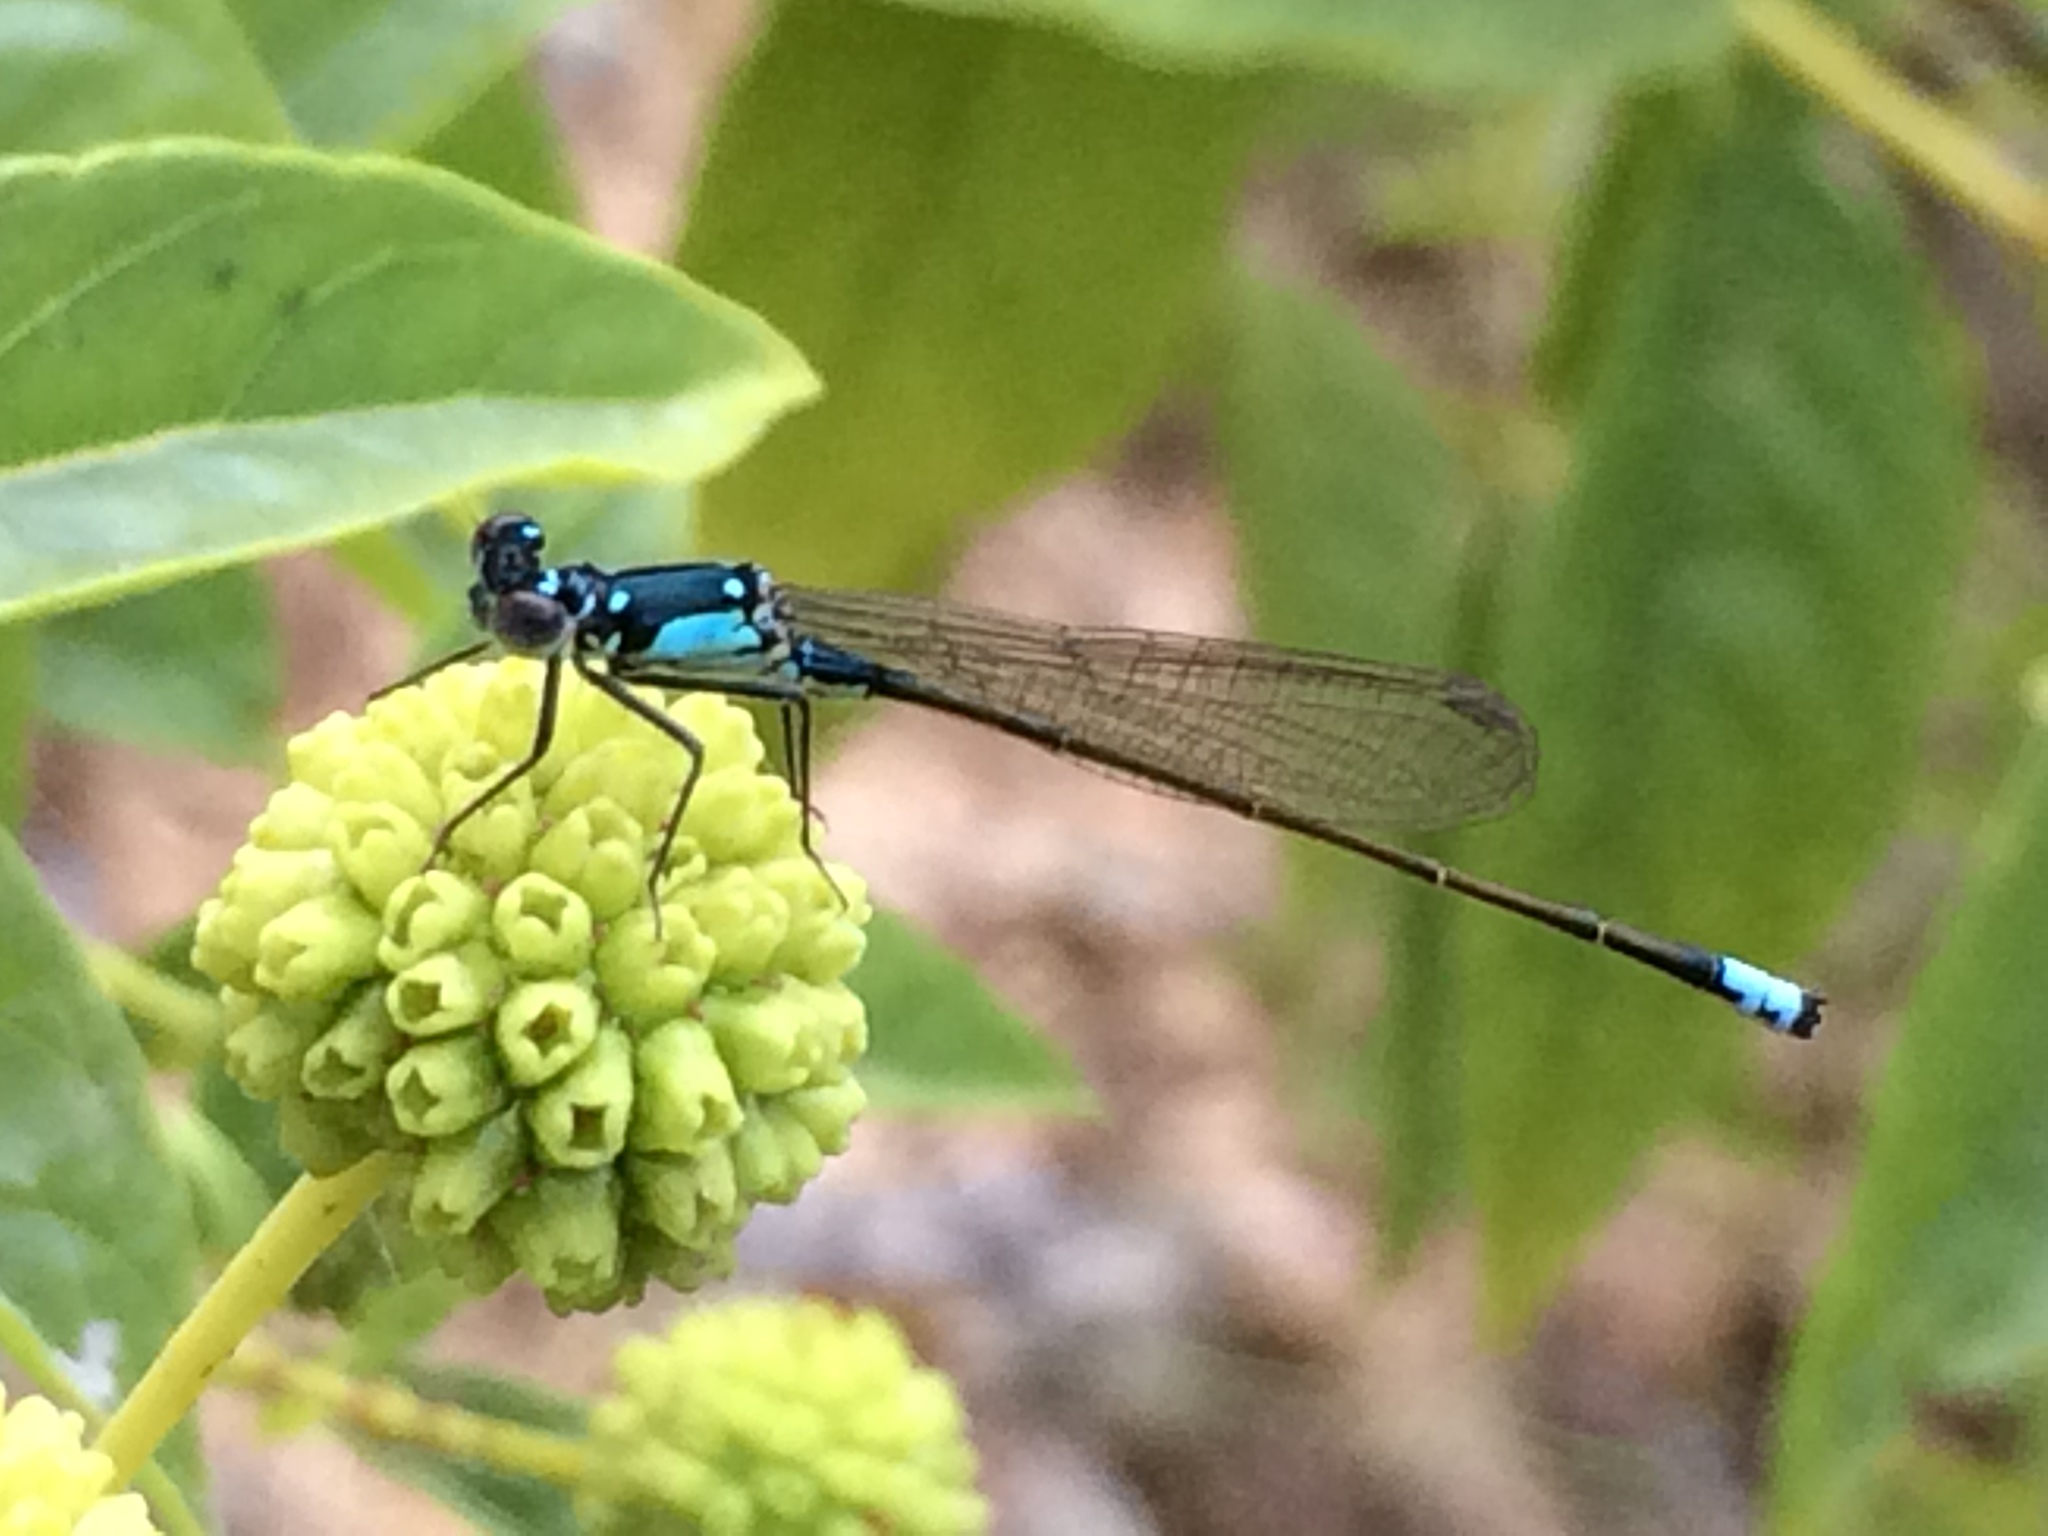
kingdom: Animalia
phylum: Arthropoda
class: Insecta
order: Odonata
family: Coenagrionidae
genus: Ischnura
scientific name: Ischnura cervula
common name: Pacific forktail
